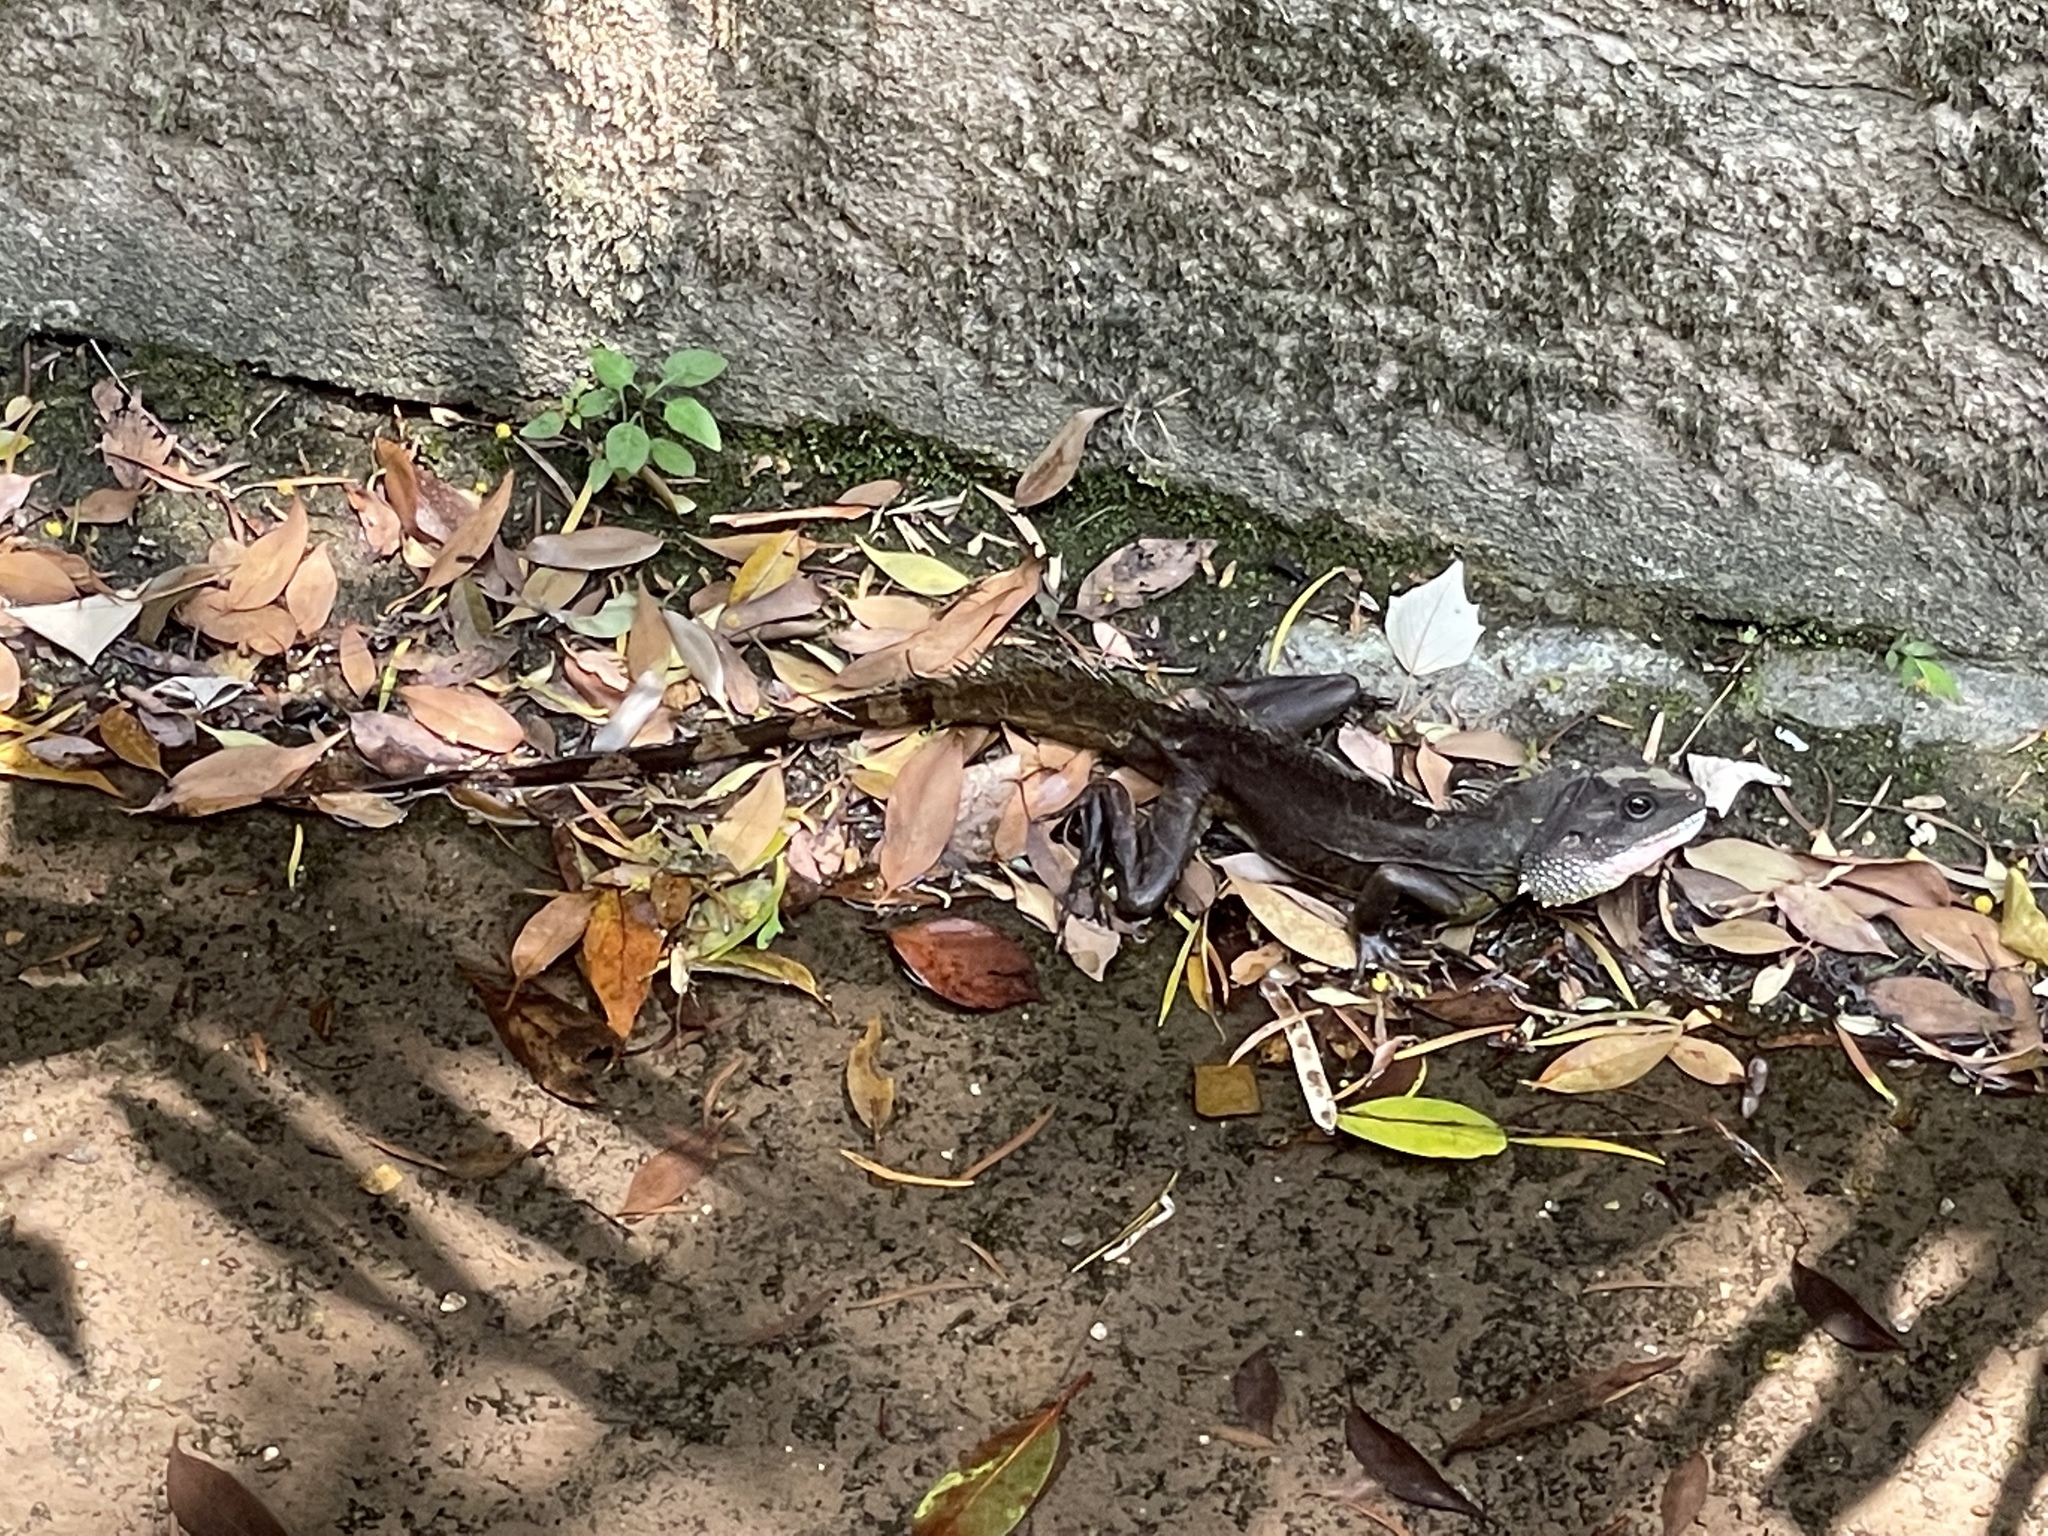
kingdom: Animalia
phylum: Chordata
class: Squamata
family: Agamidae
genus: Physignathus
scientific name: Physignathus cocincinus
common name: Asian water dragon
